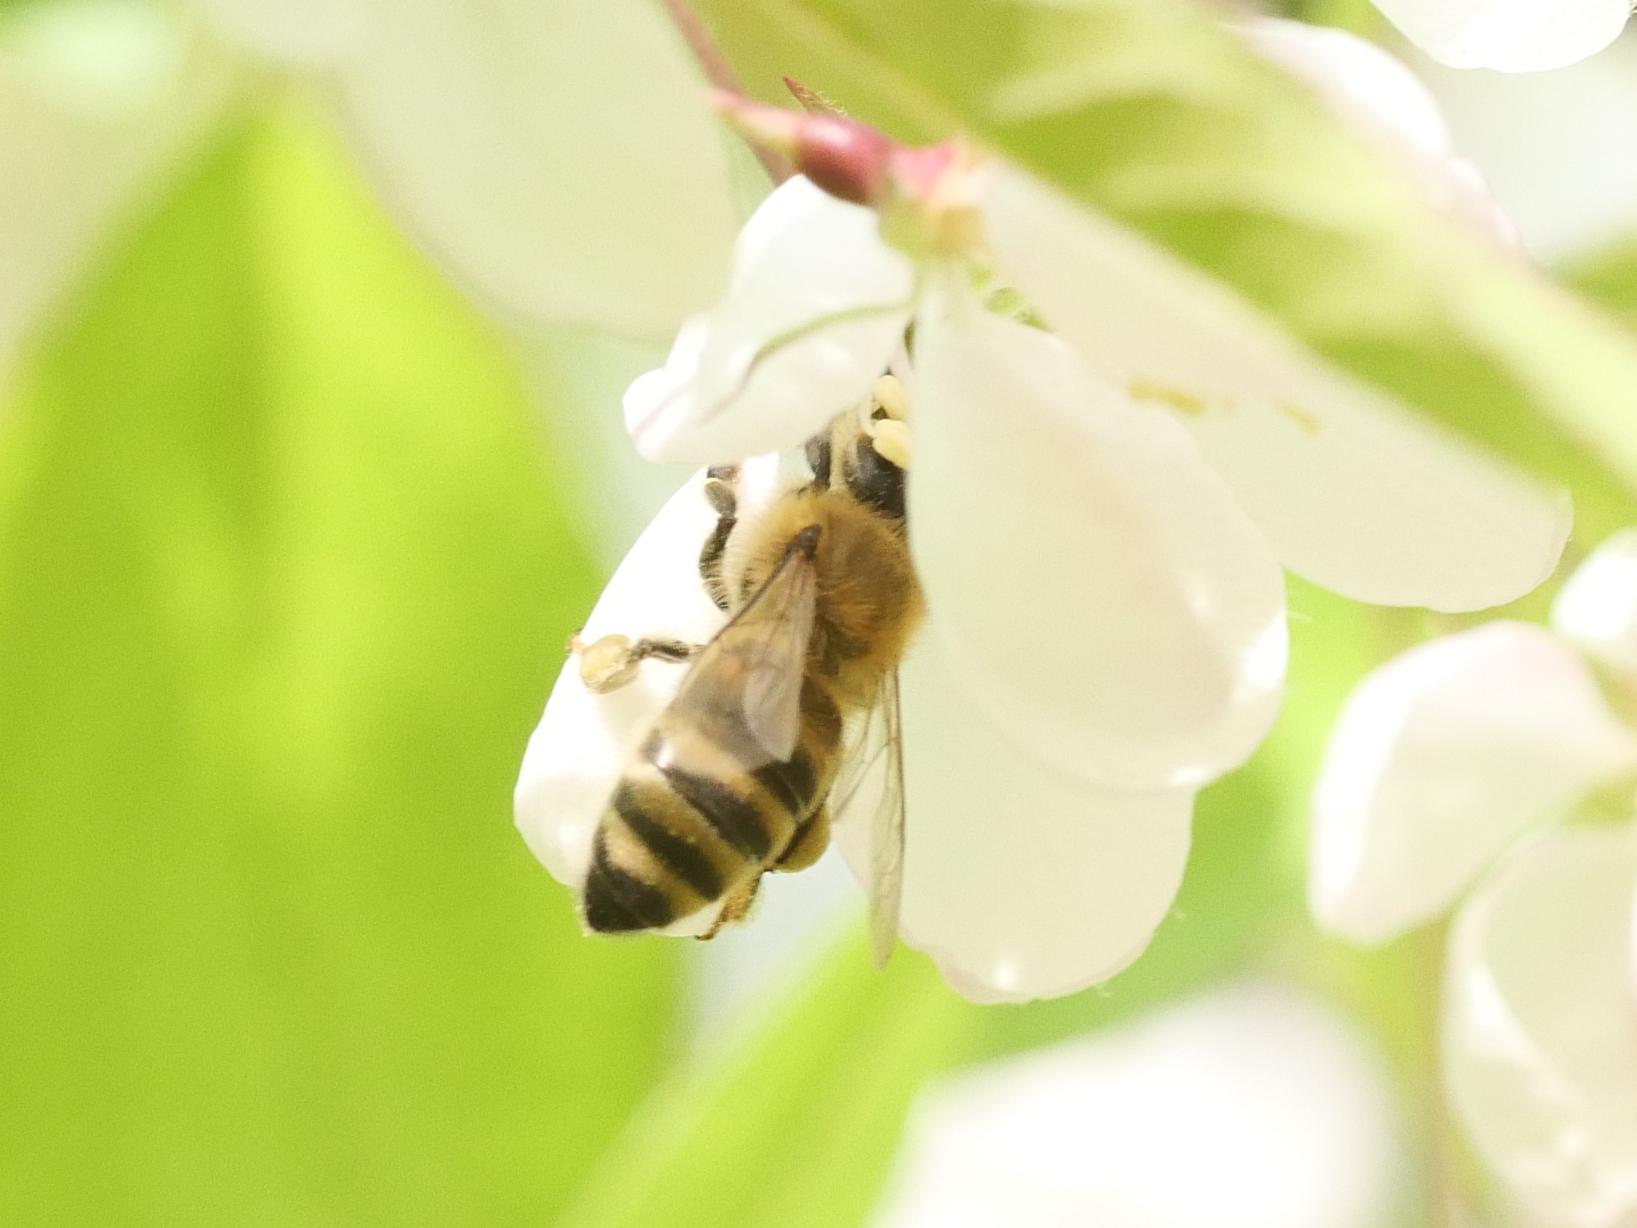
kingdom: Animalia
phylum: Arthropoda
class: Insecta
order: Hymenoptera
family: Apidae
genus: Apis
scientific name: Apis mellifera
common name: Honey bee
